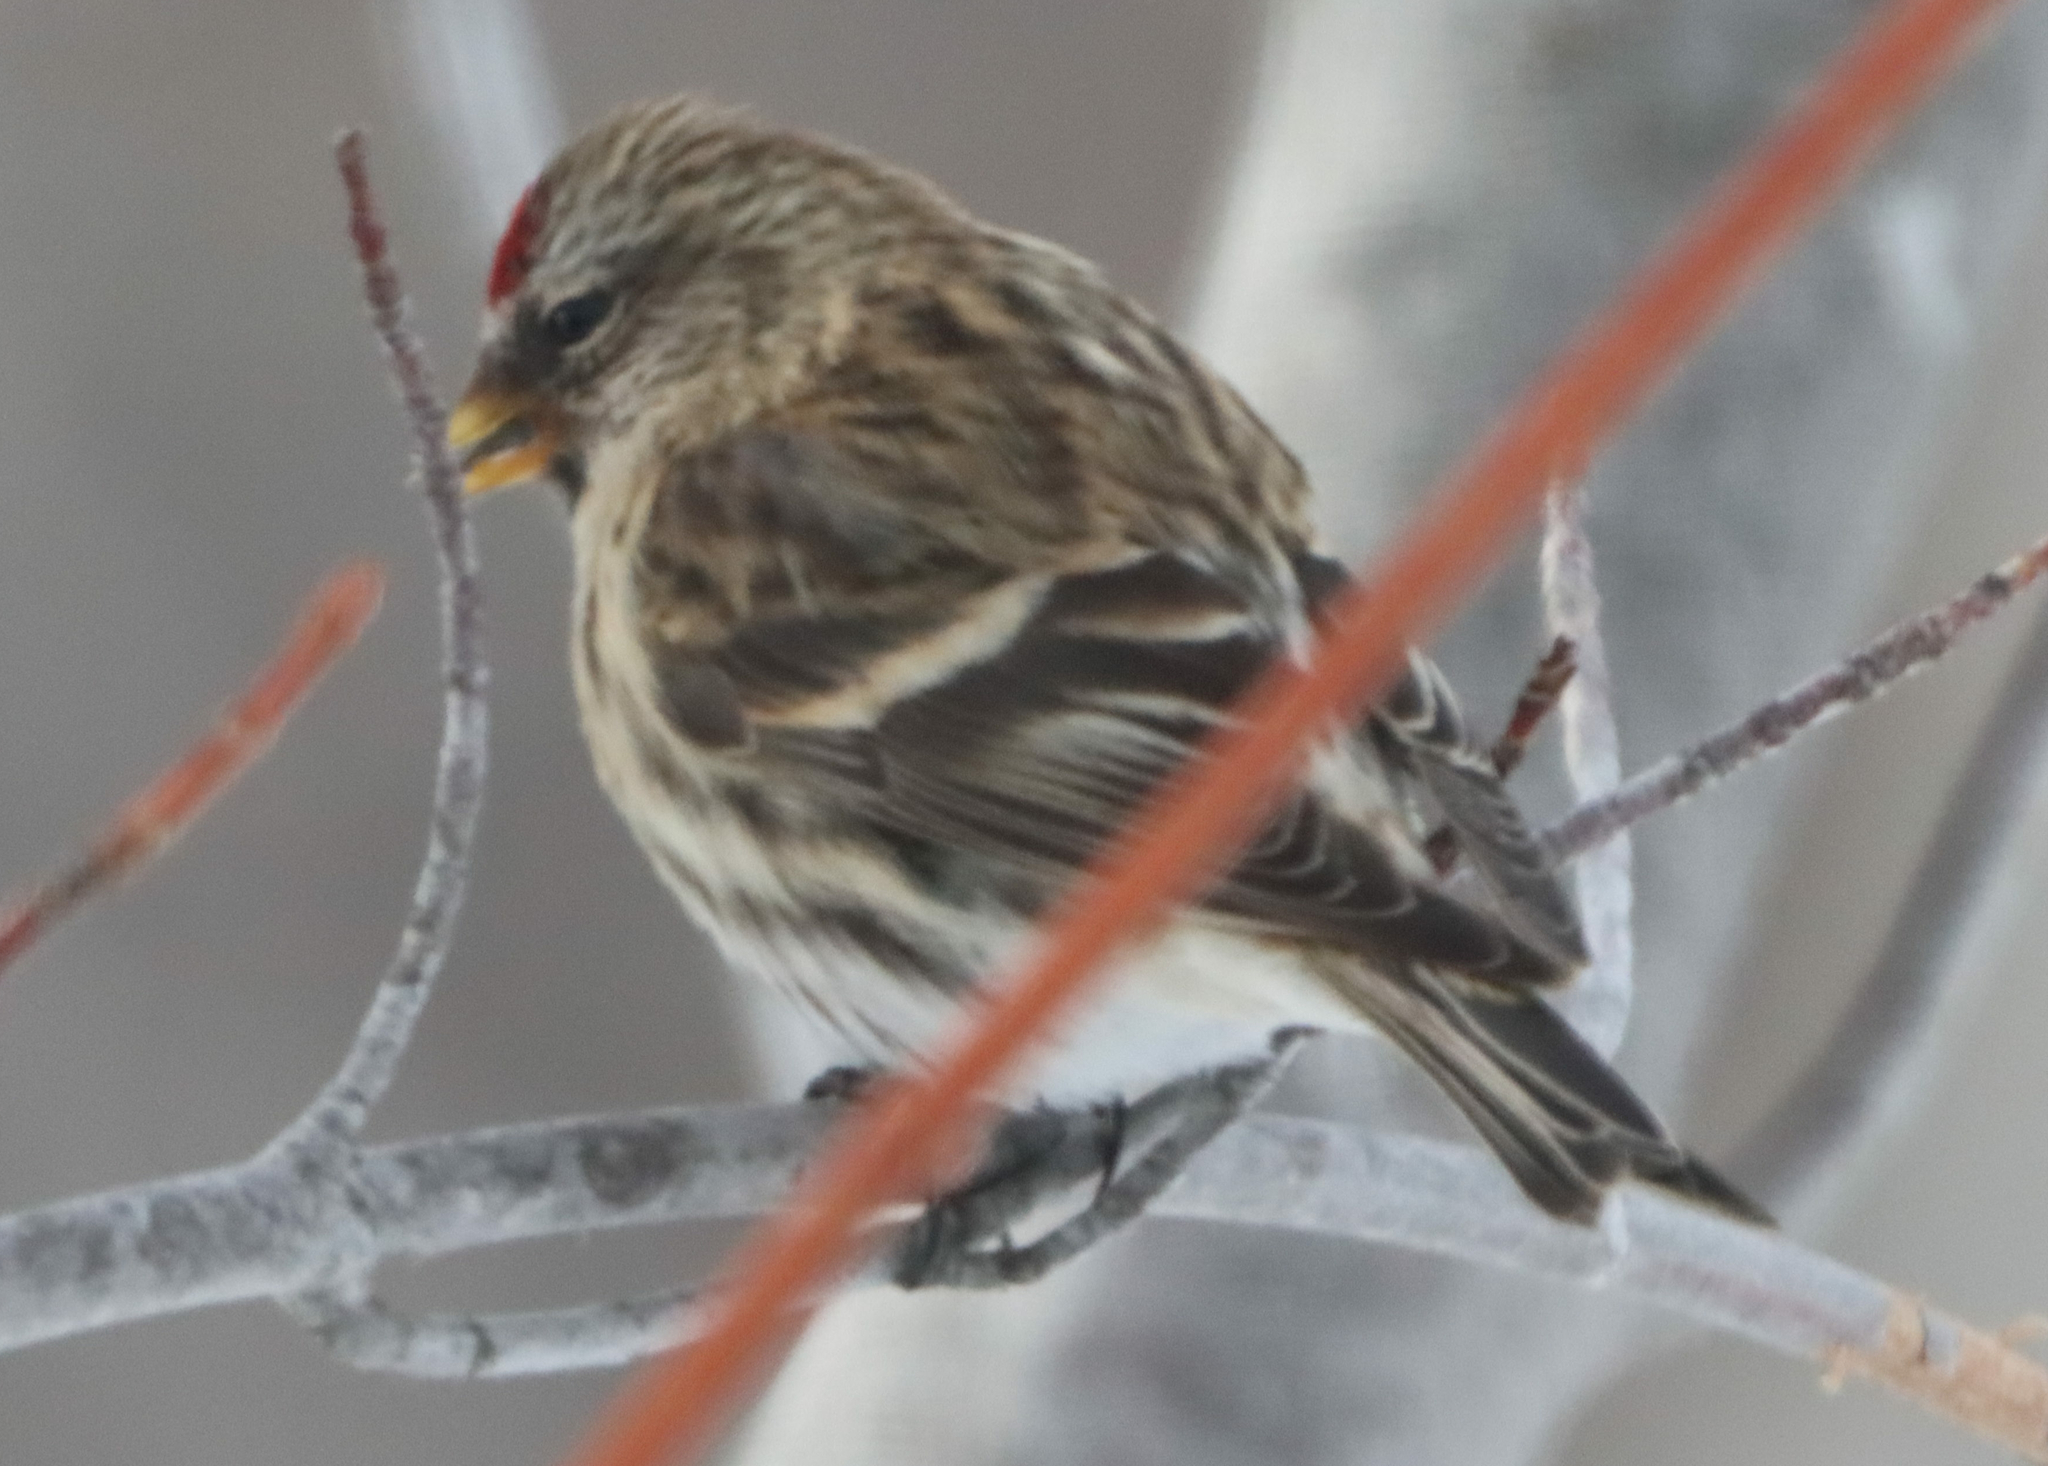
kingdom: Animalia
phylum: Chordata
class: Aves
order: Passeriformes
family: Fringillidae
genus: Acanthis
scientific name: Acanthis flammea
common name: Common redpoll
